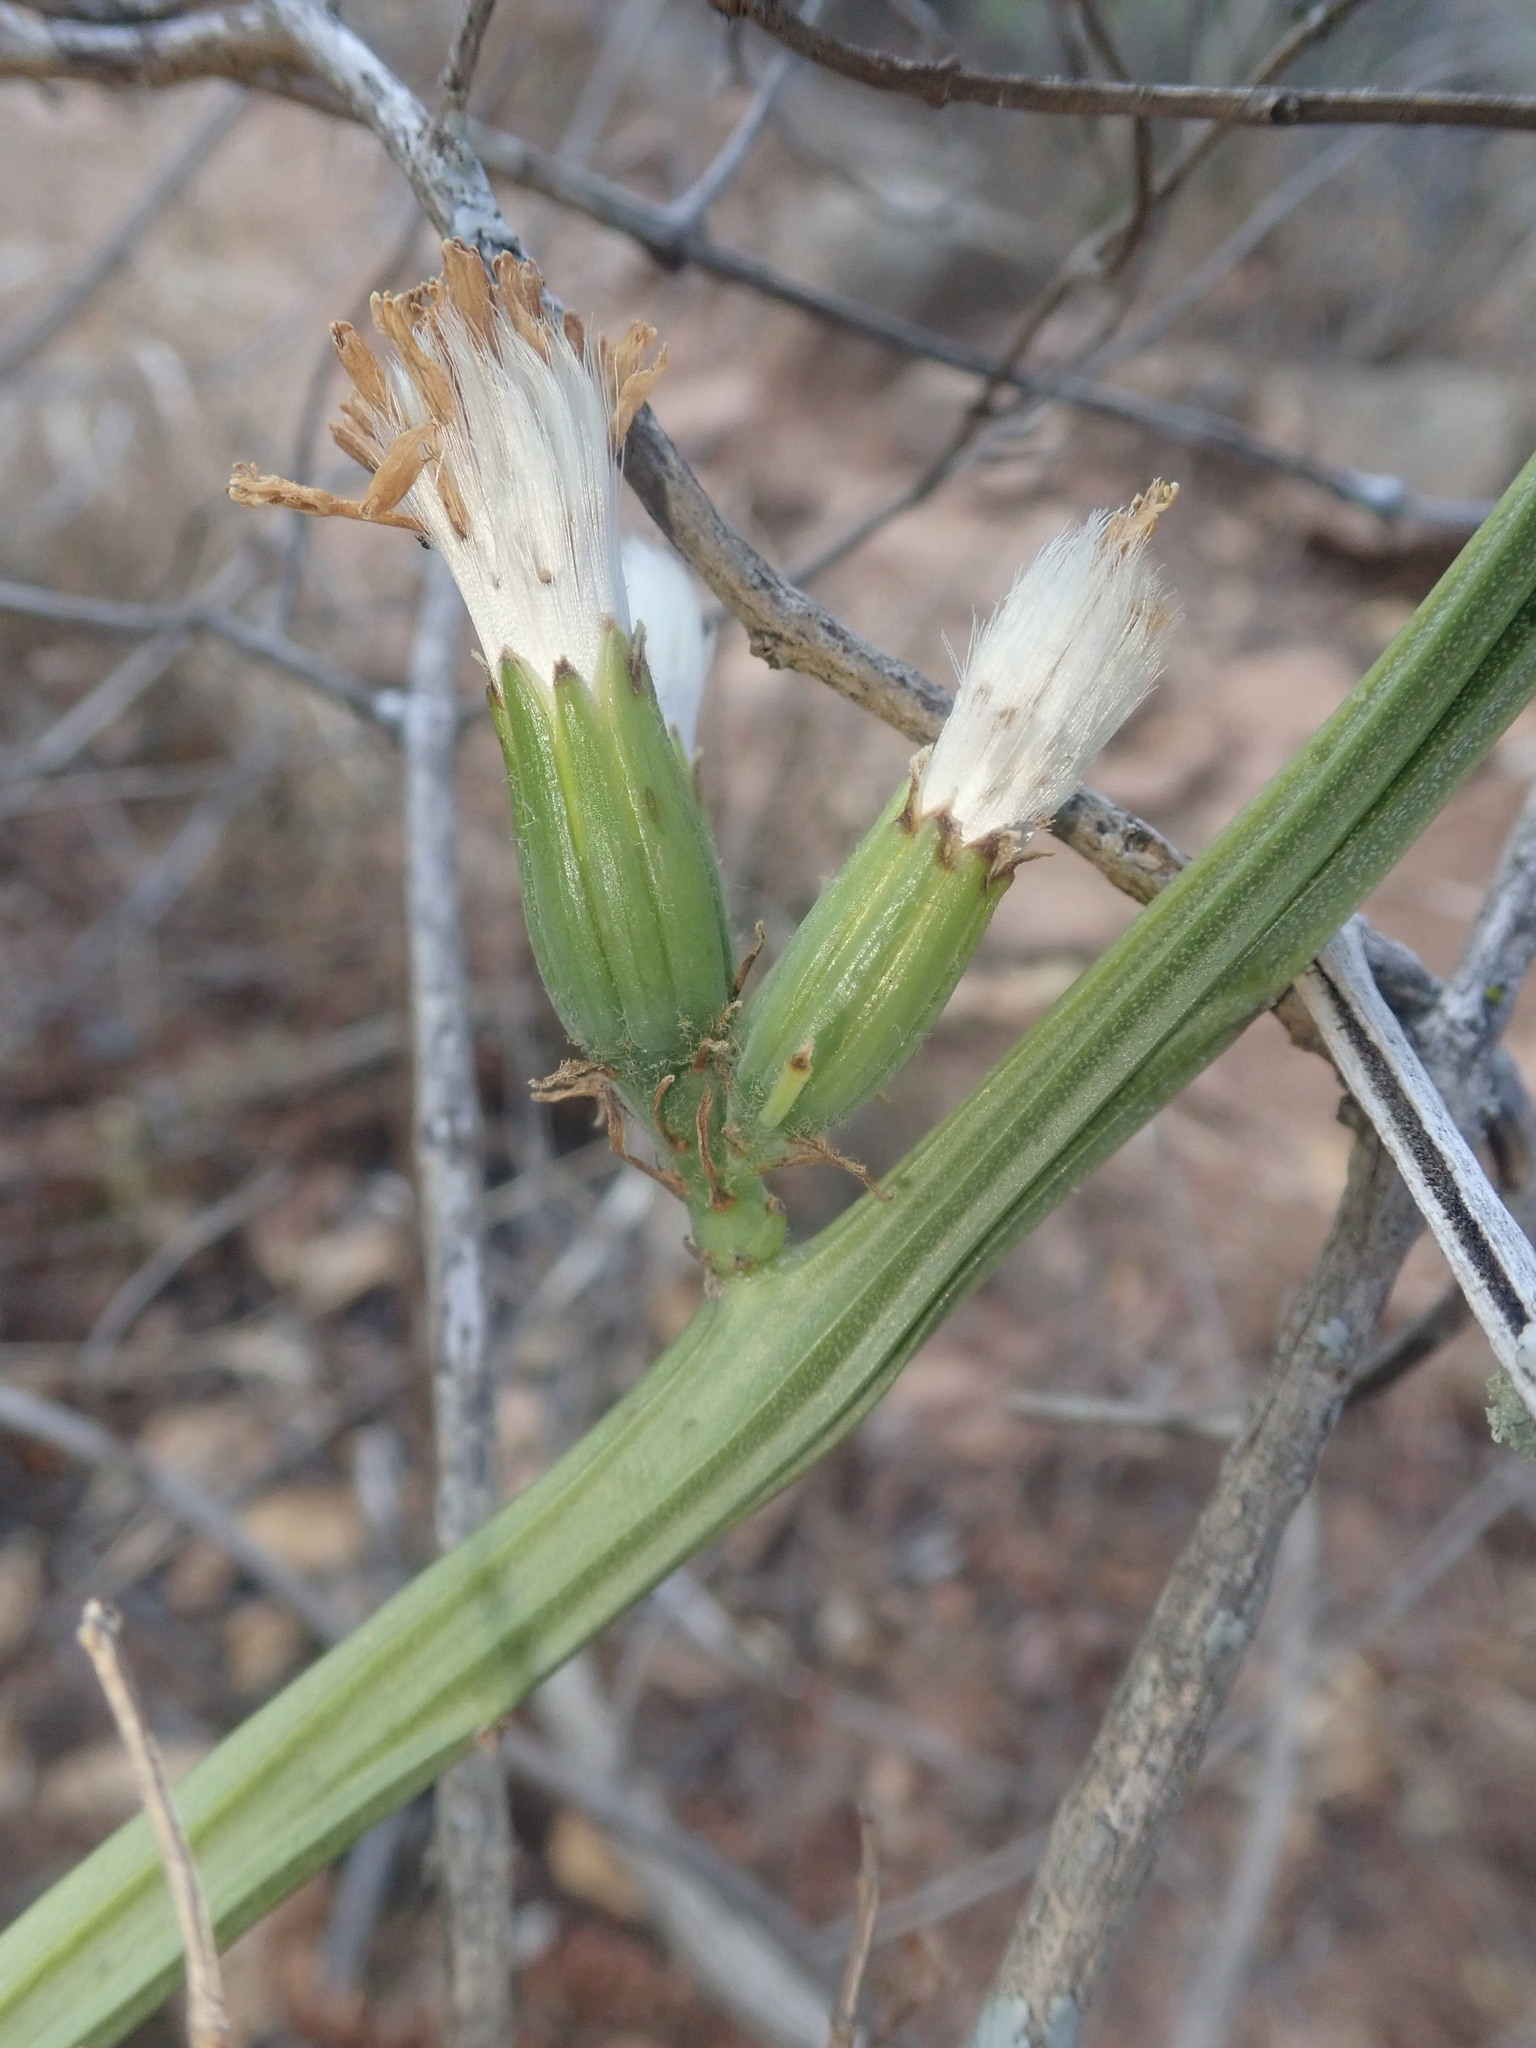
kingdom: Plantae
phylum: Tracheophyta
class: Magnoliopsida
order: Asterales
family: Asteraceae
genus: Curio
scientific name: Curio avasimontanus
